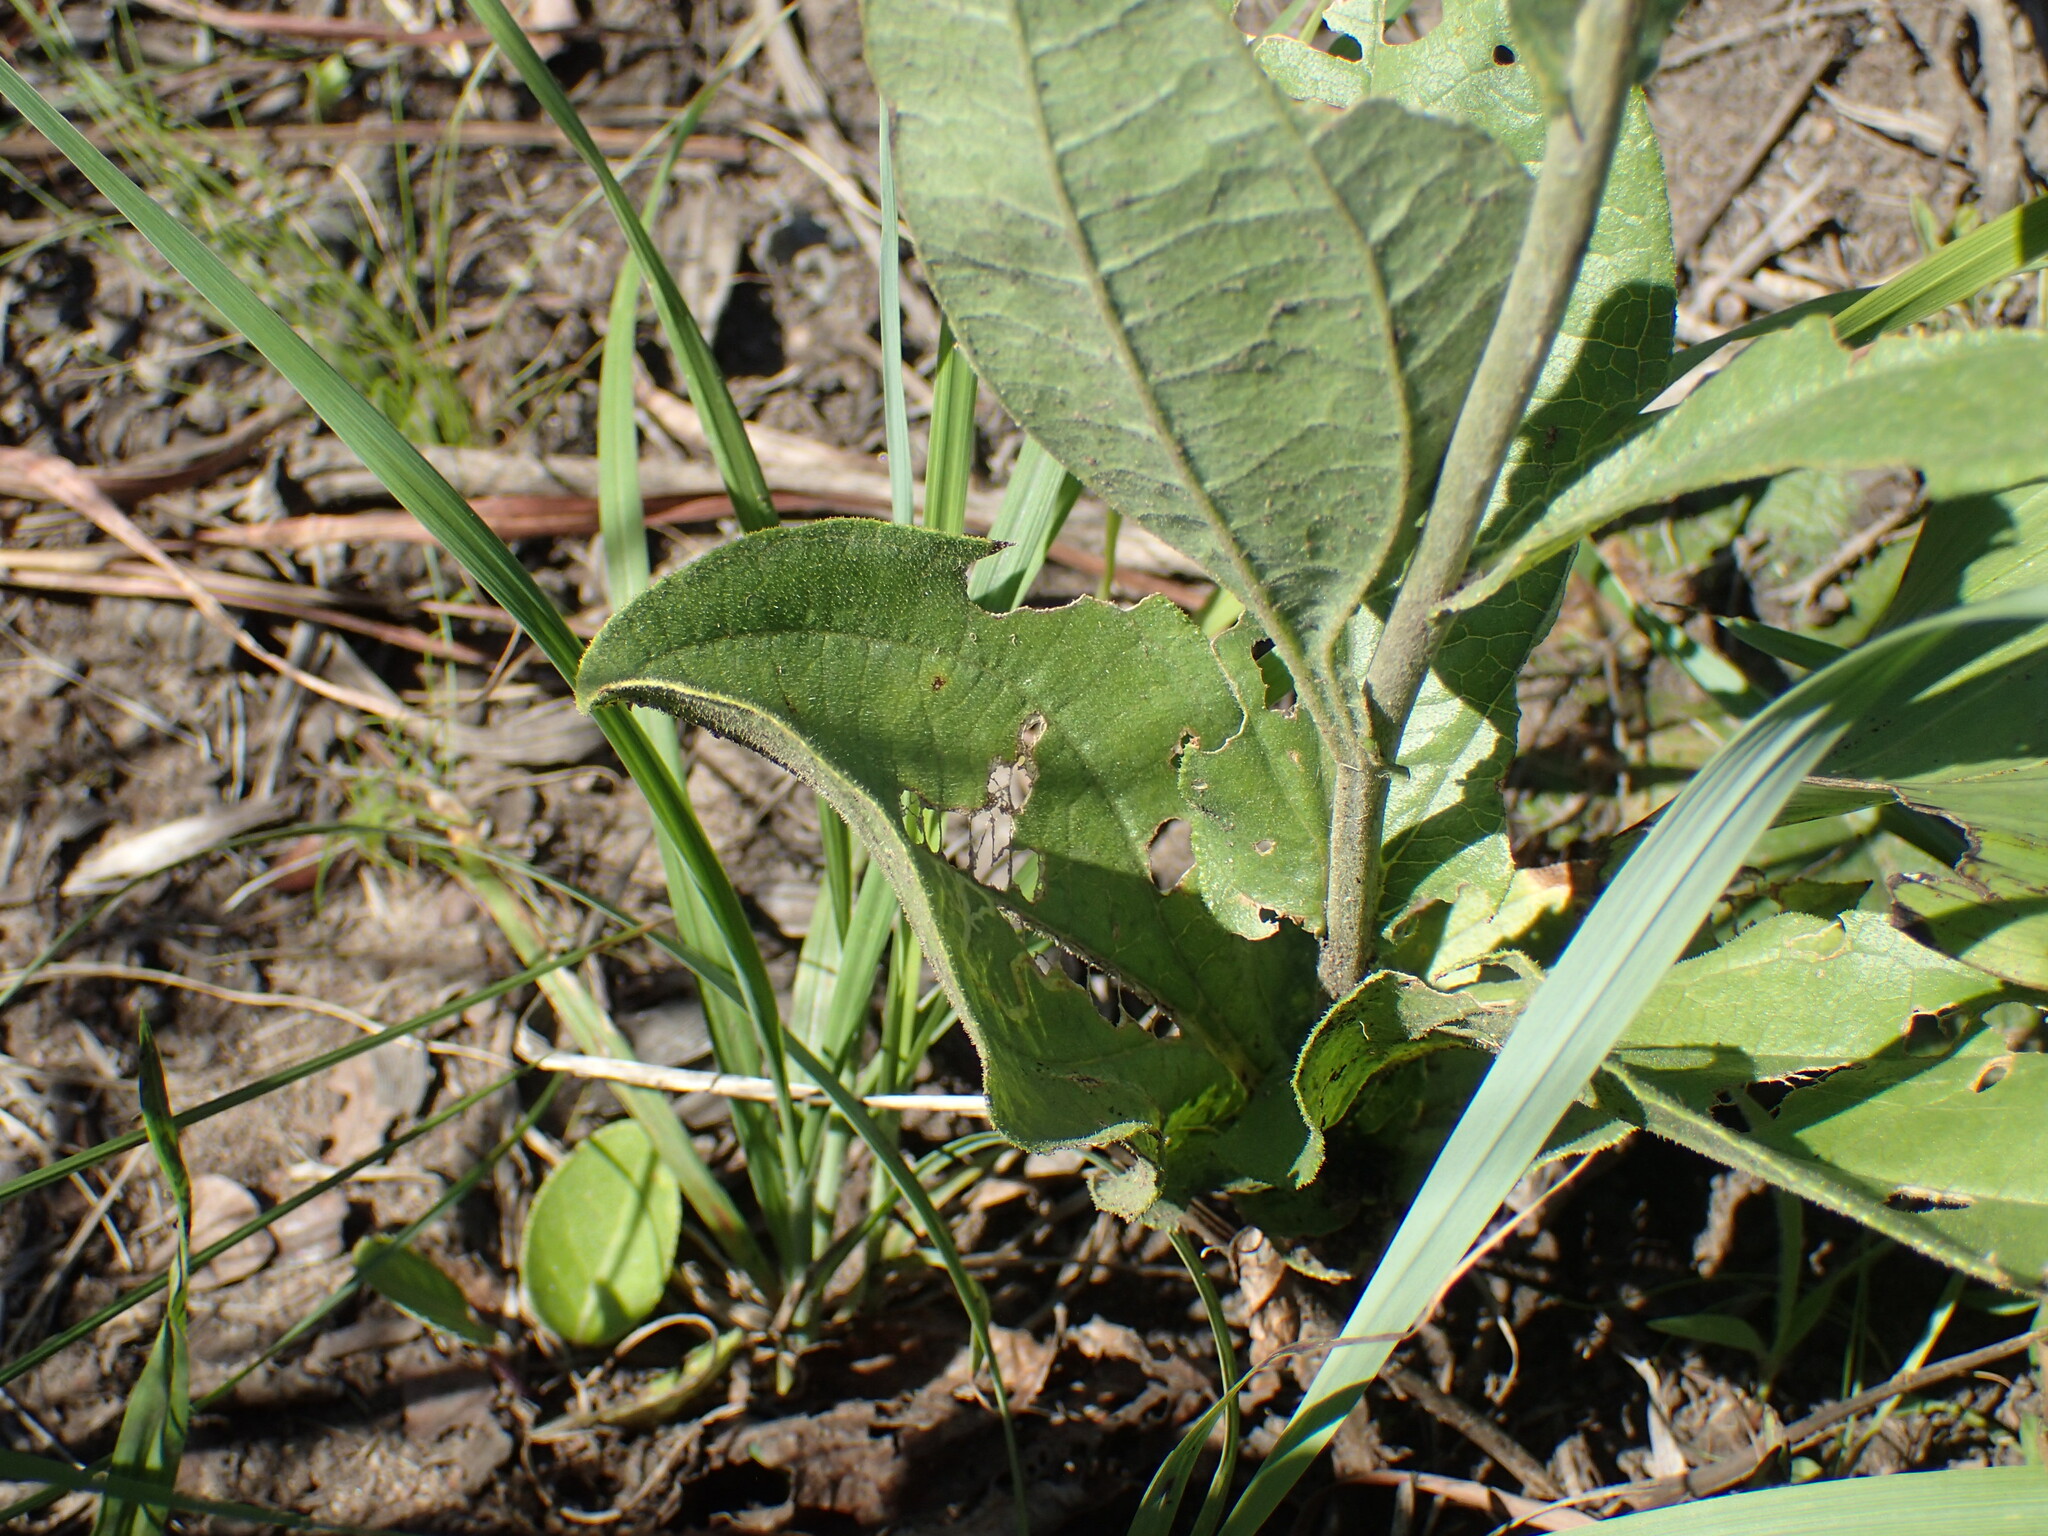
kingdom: Plantae
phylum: Tracheophyta
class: Magnoliopsida
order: Asterales
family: Asteraceae
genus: Helichrysum
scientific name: Helichrysum nudifolium
